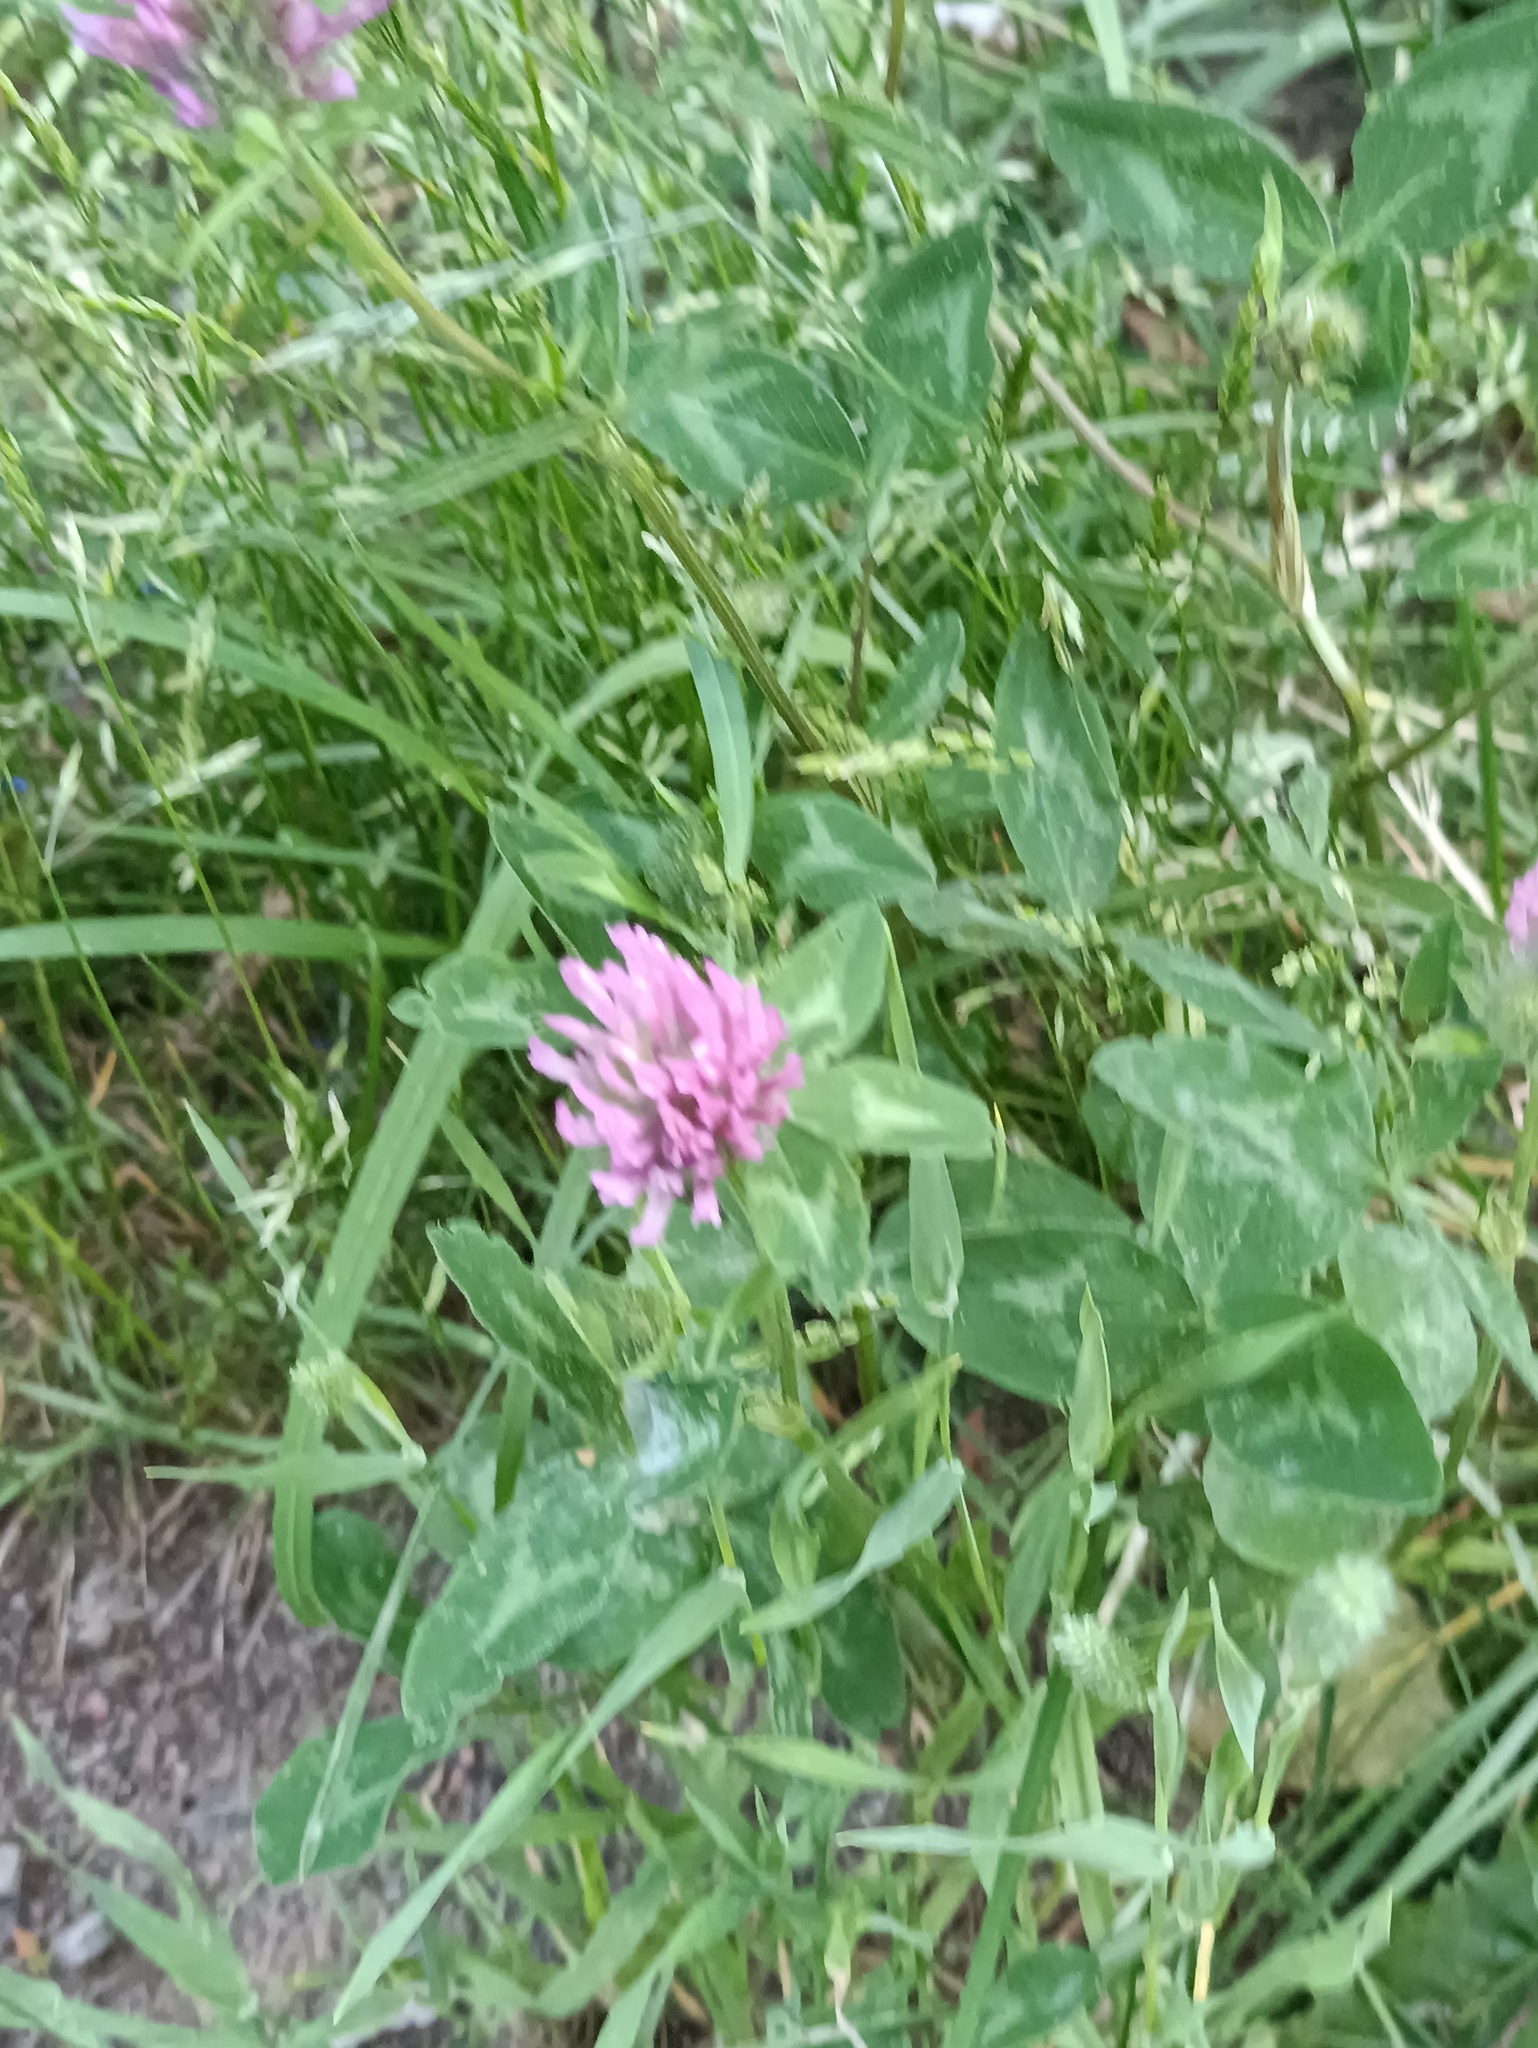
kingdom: Plantae
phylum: Tracheophyta
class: Magnoliopsida
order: Fabales
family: Fabaceae
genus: Trifolium
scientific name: Trifolium pratense
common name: Red clover
